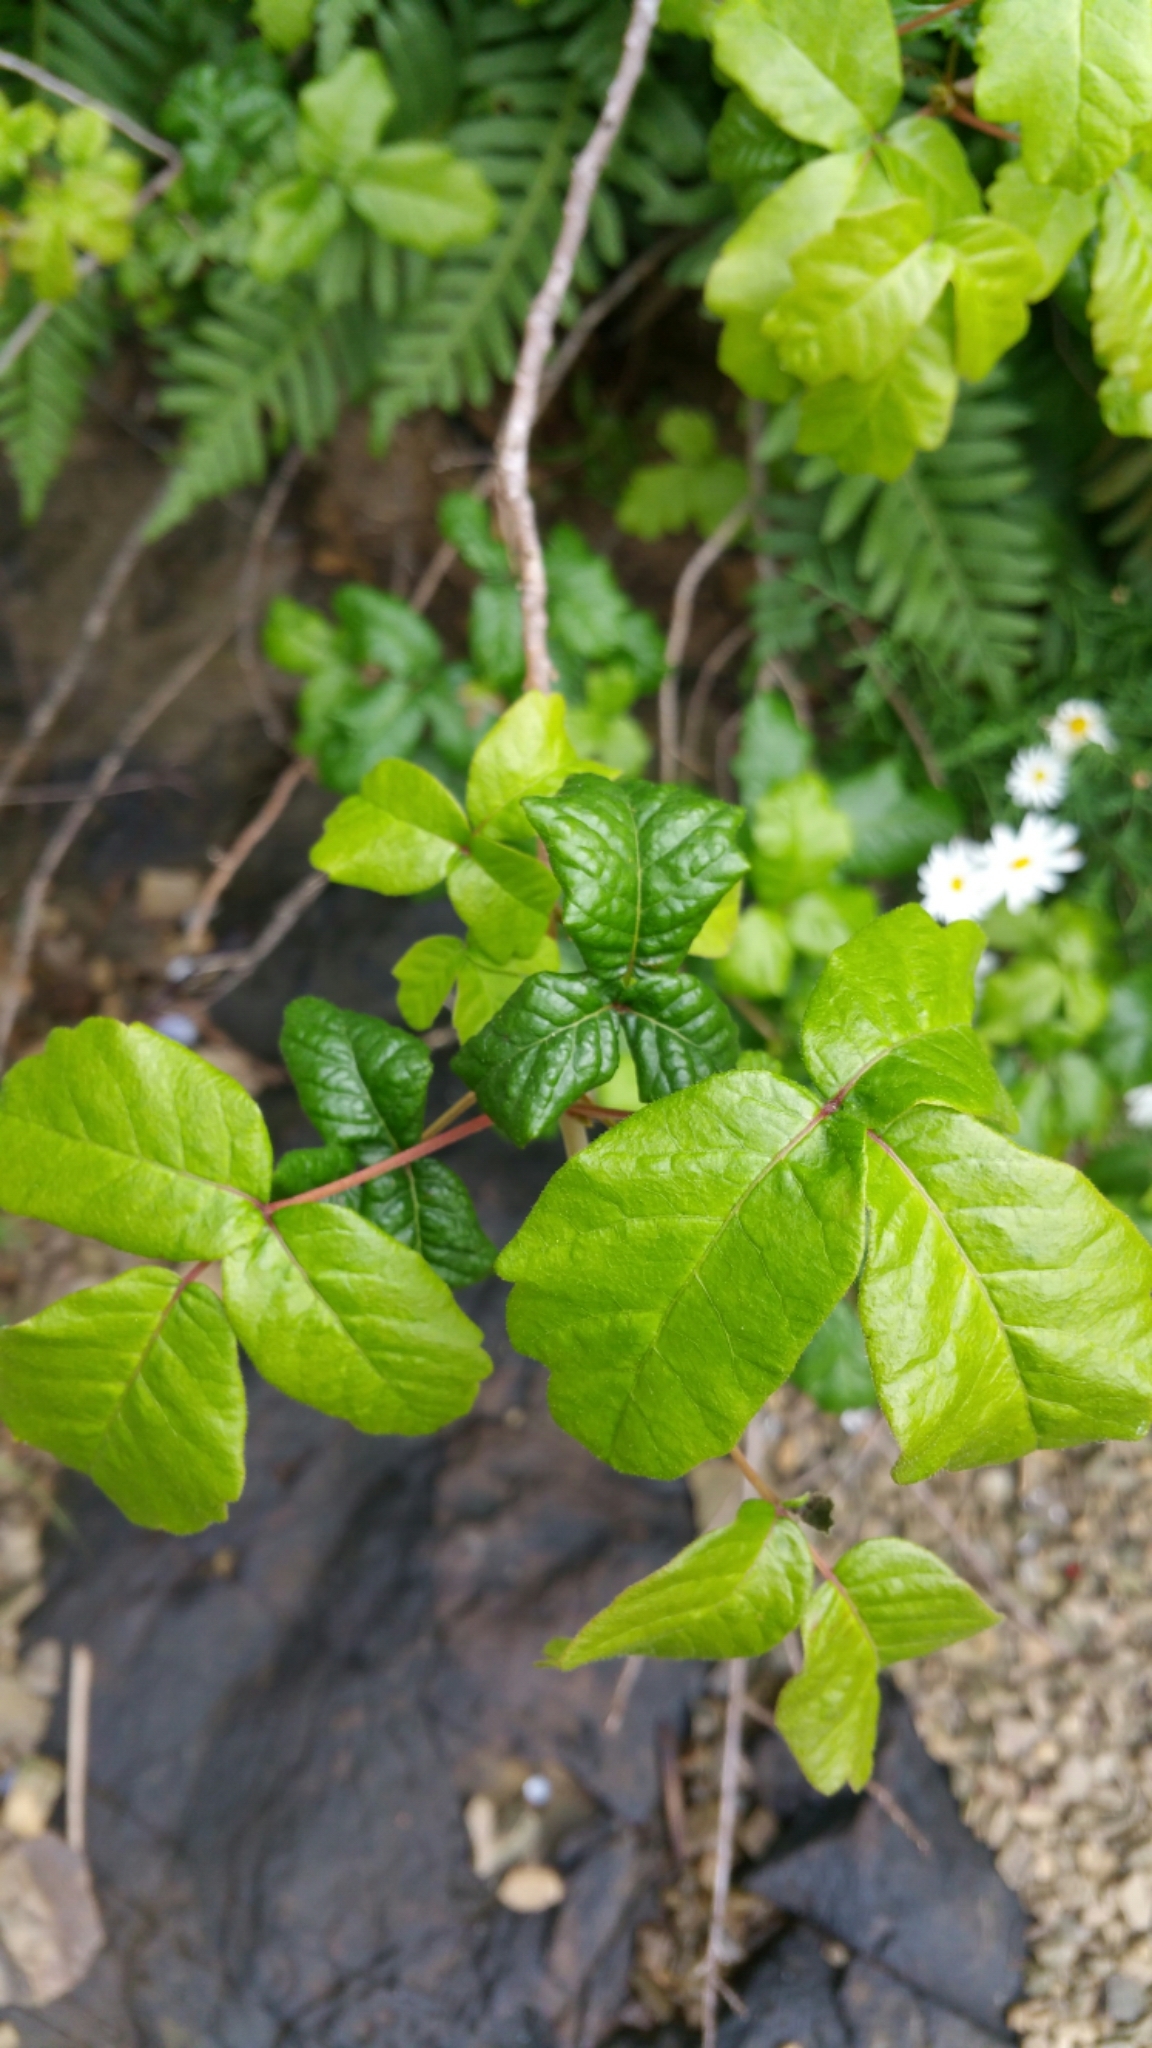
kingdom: Plantae
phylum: Tracheophyta
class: Magnoliopsida
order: Sapindales
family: Anacardiaceae
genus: Toxicodendron
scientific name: Toxicodendron diversilobum
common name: Pacific poison-oak
